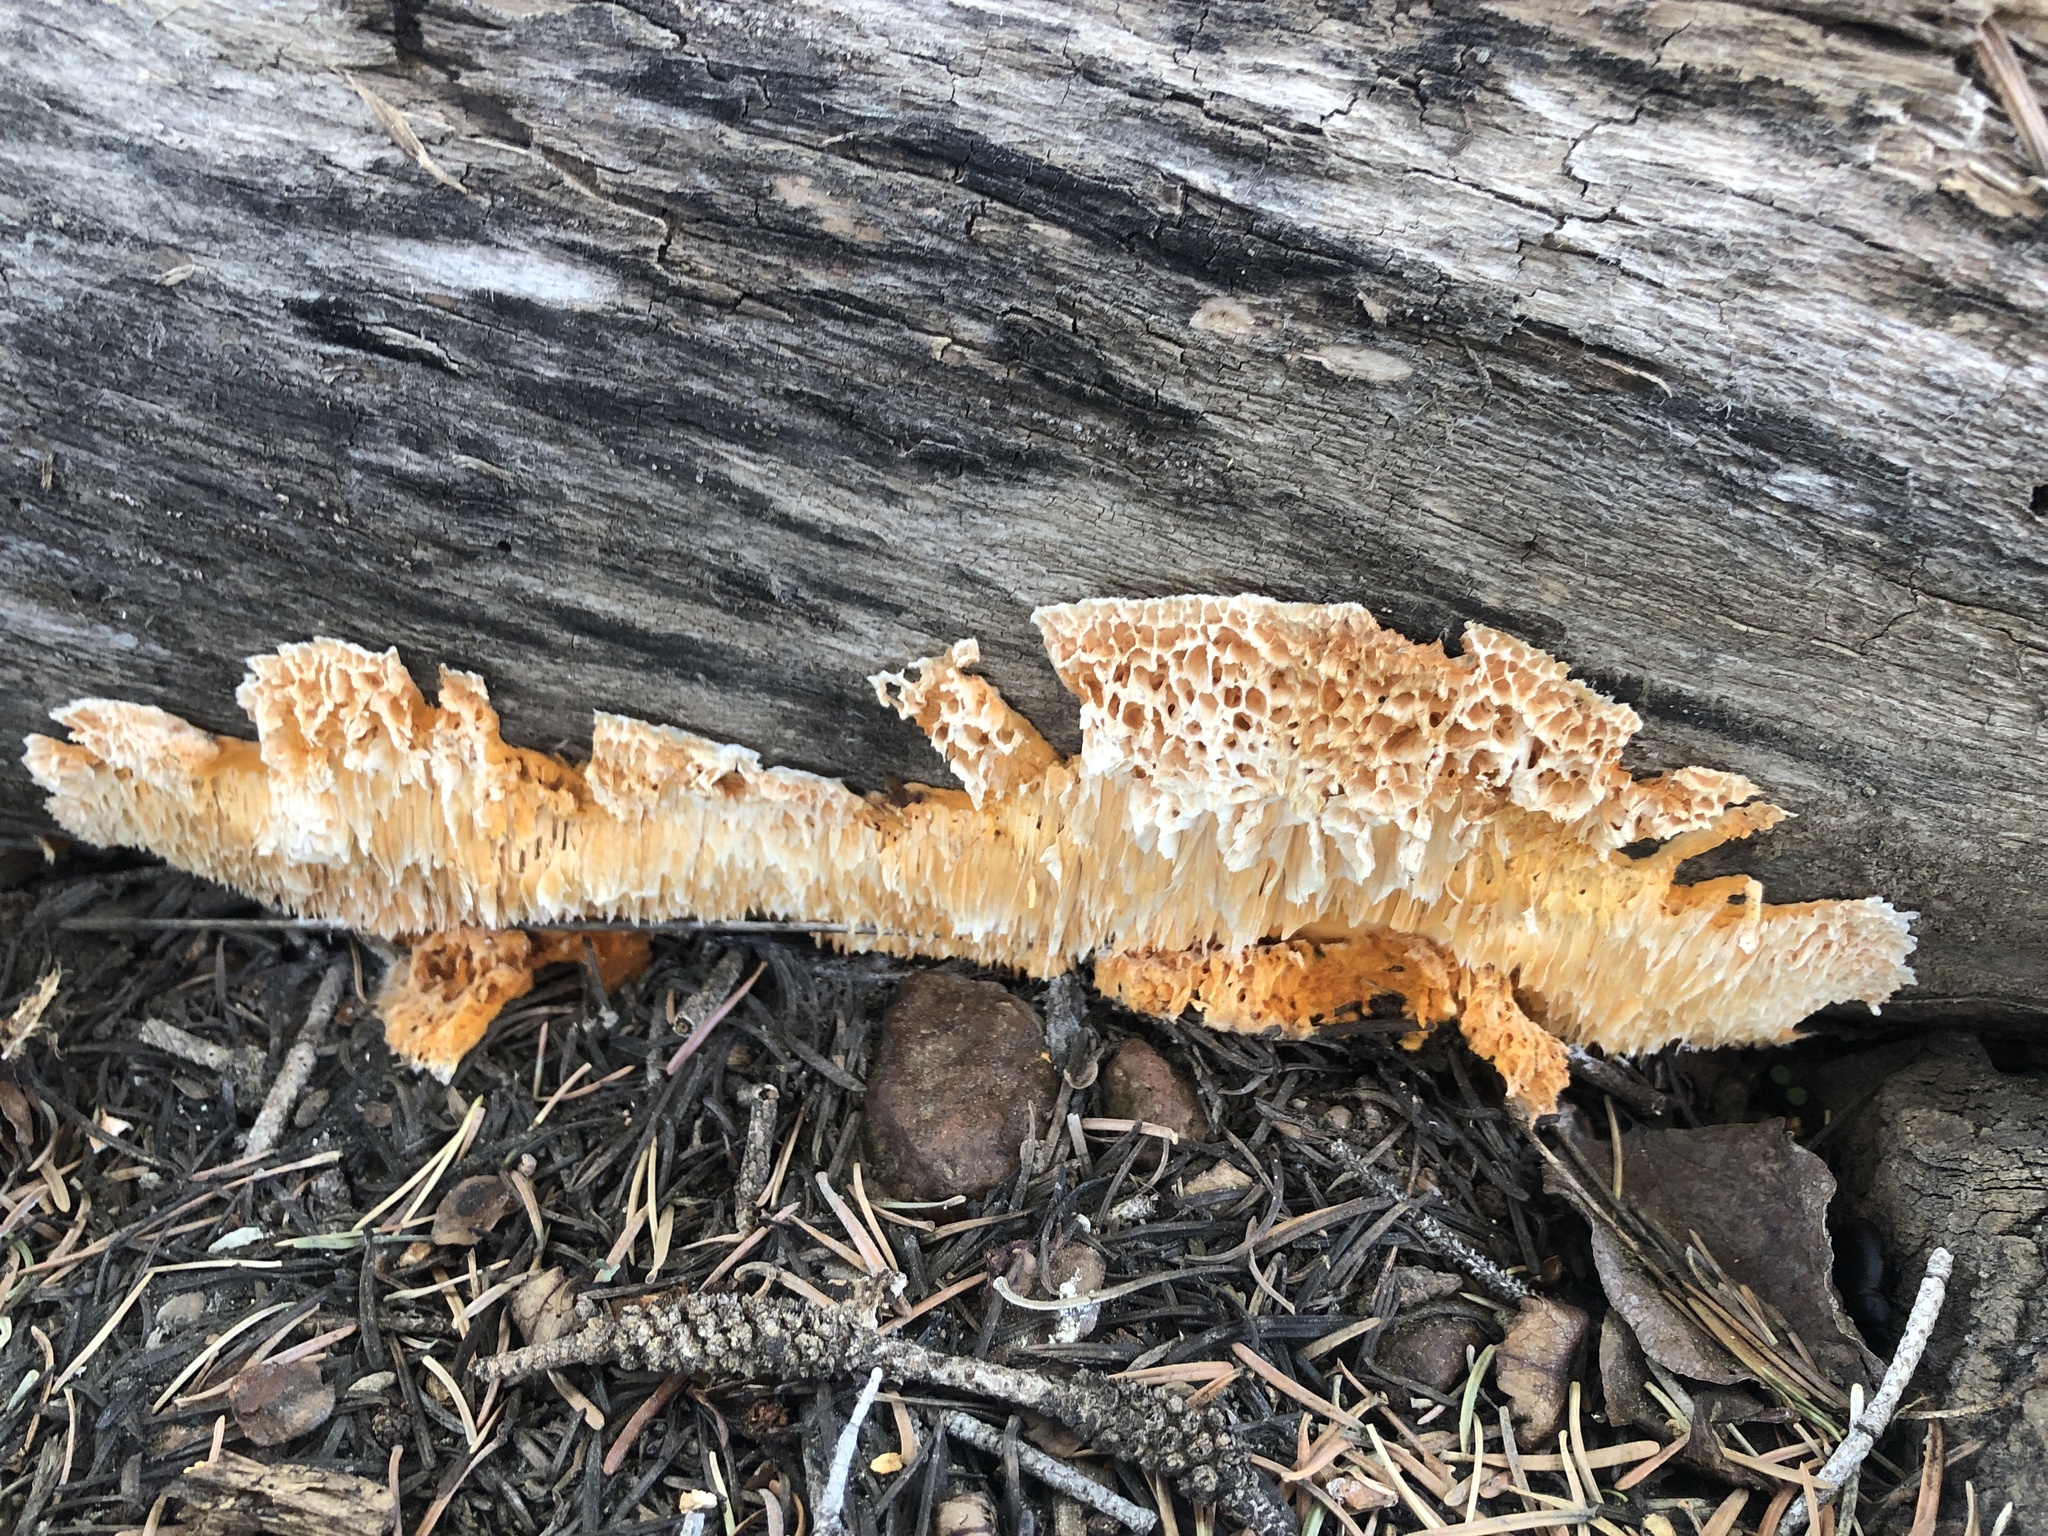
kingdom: Fungi
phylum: Basidiomycota
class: Agaricomycetes
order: Polyporales
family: Pycnoporellaceae
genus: Pycnoporellus
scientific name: Pycnoporellus alboluteus
